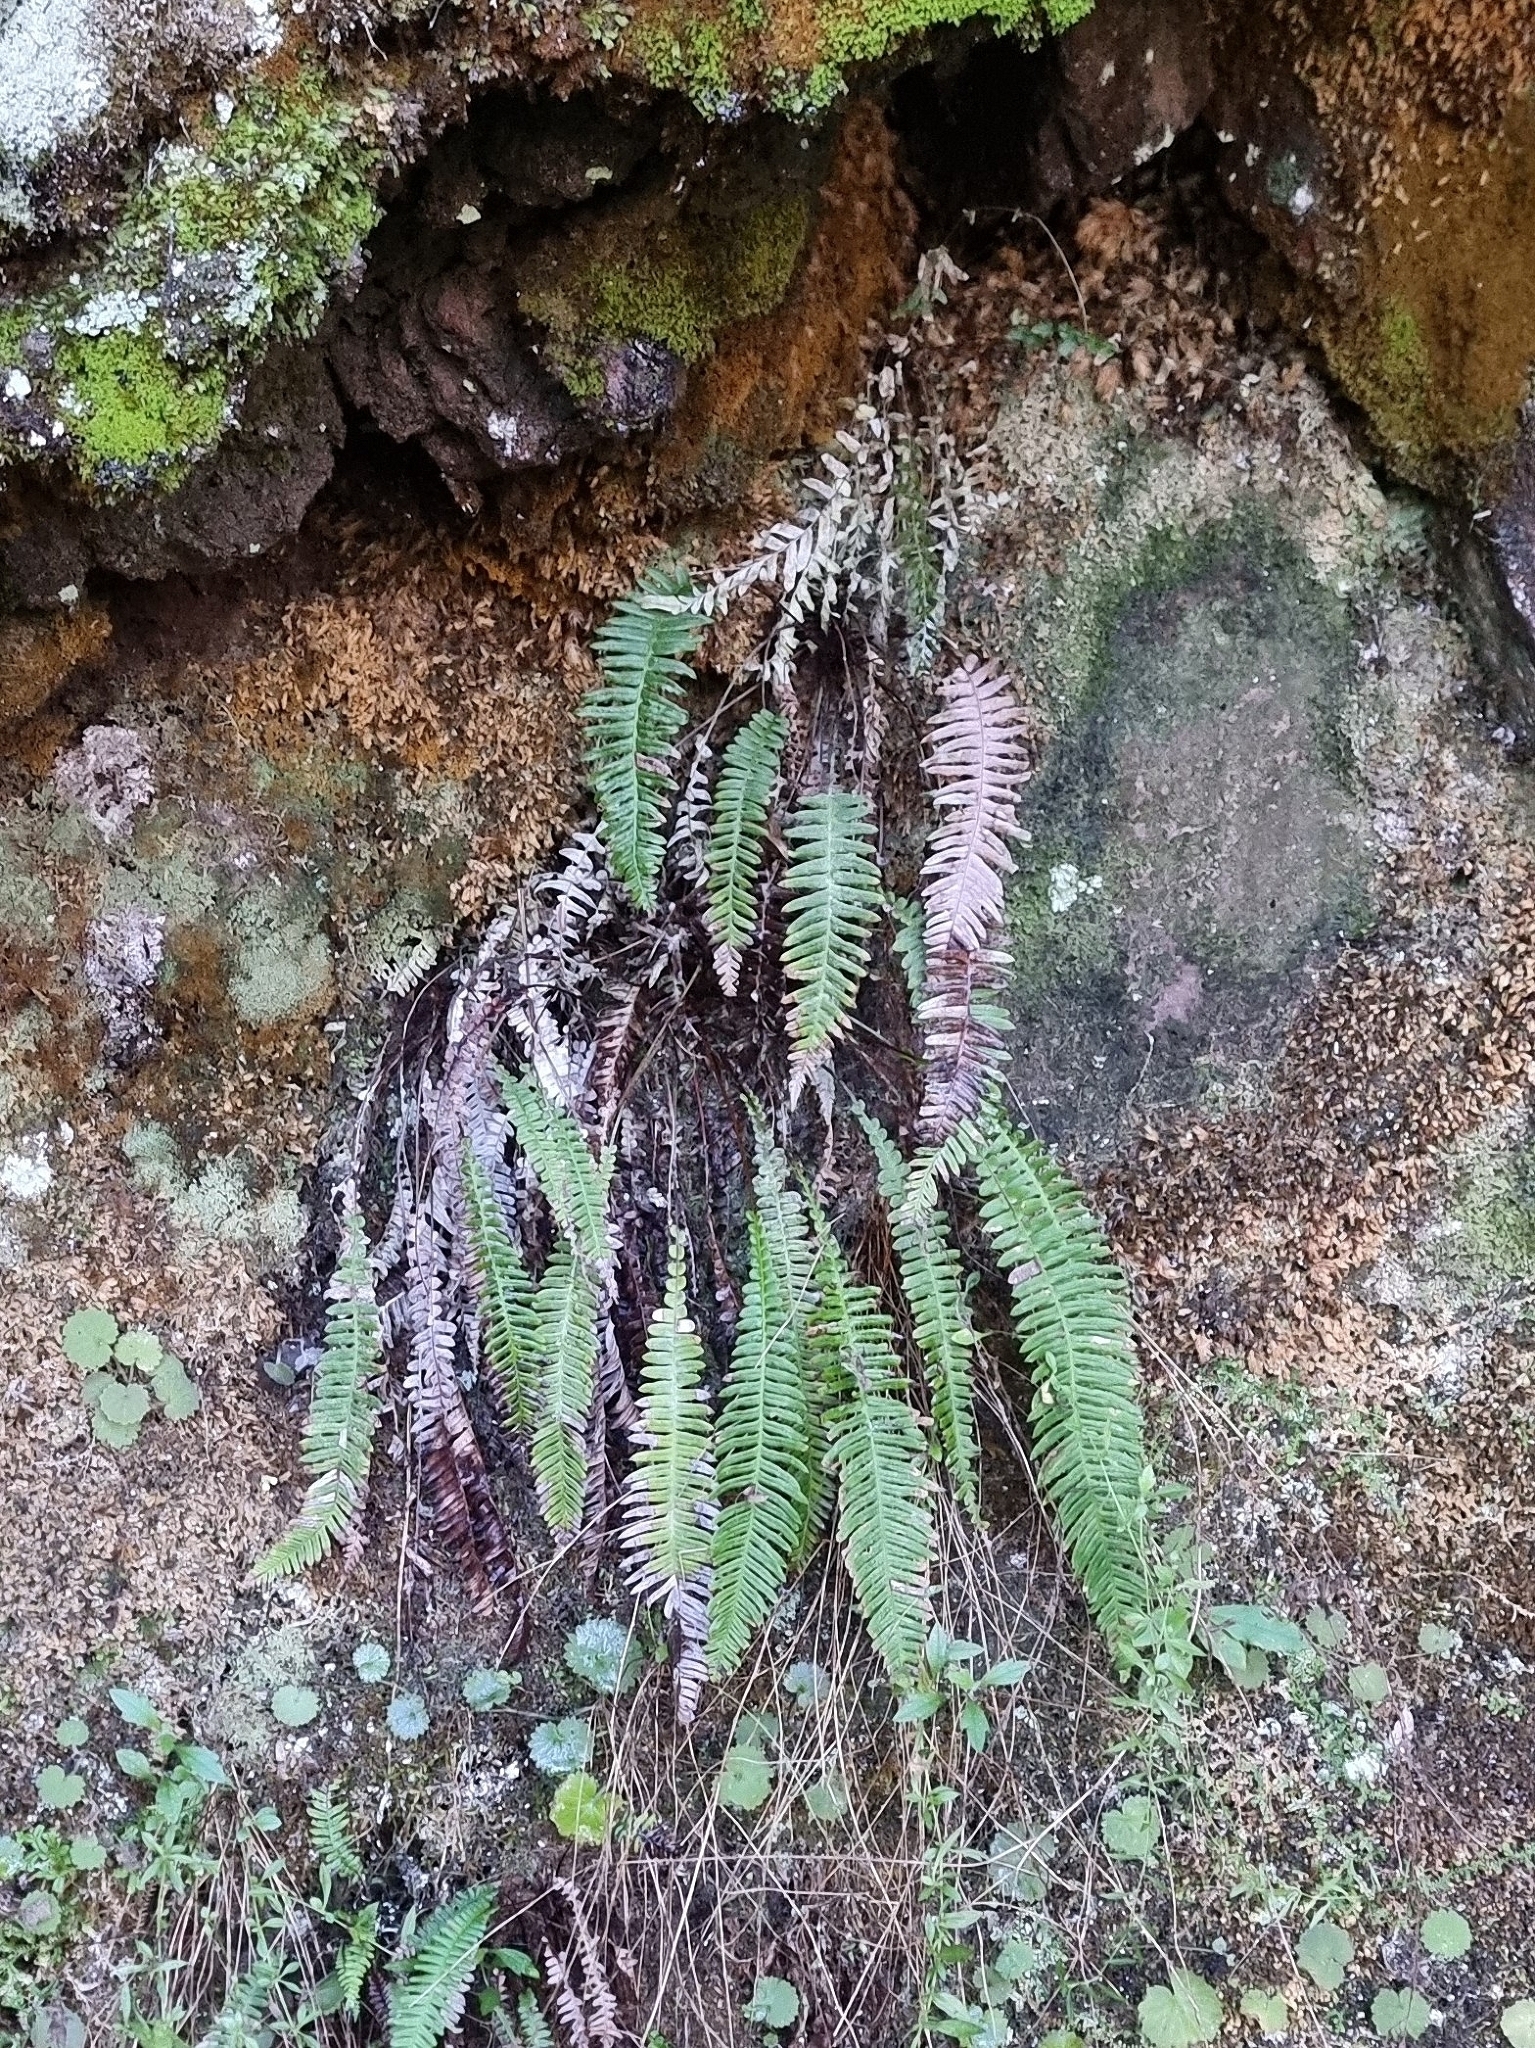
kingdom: Plantae
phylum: Tracheophyta
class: Polypodiopsida
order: Polypodiales
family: Blechnaceae
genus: Struthiopteris
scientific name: Struthiopteris spicant
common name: Deer fern
